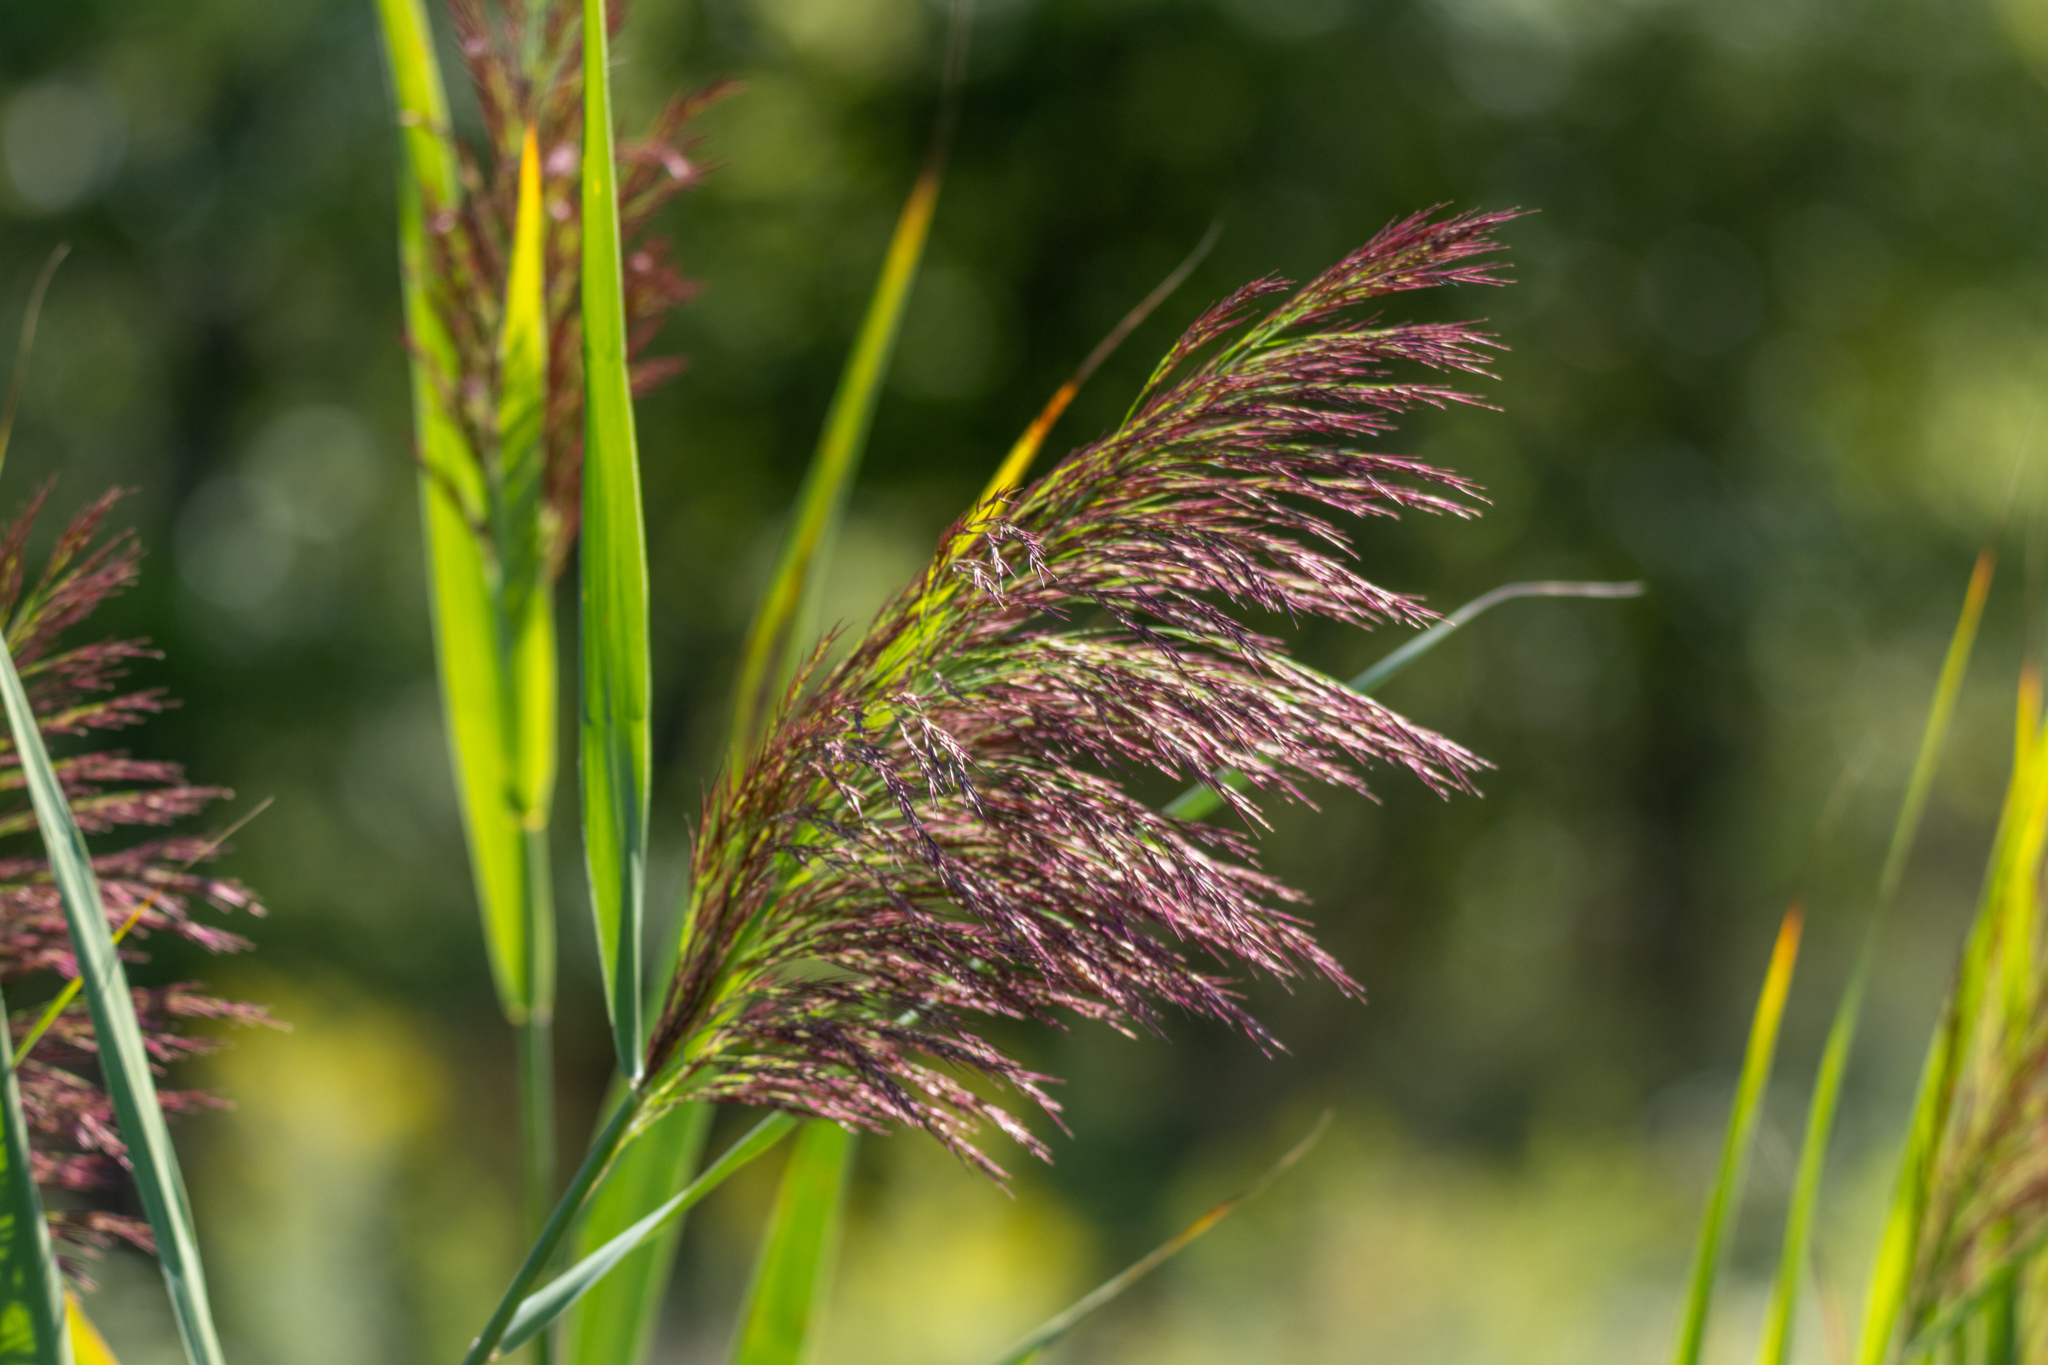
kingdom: Plantae
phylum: Tracheophyta
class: Liliopsida
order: Poales
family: Poaceae
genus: Phragmites
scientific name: Phragmites australis
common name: Common reed
